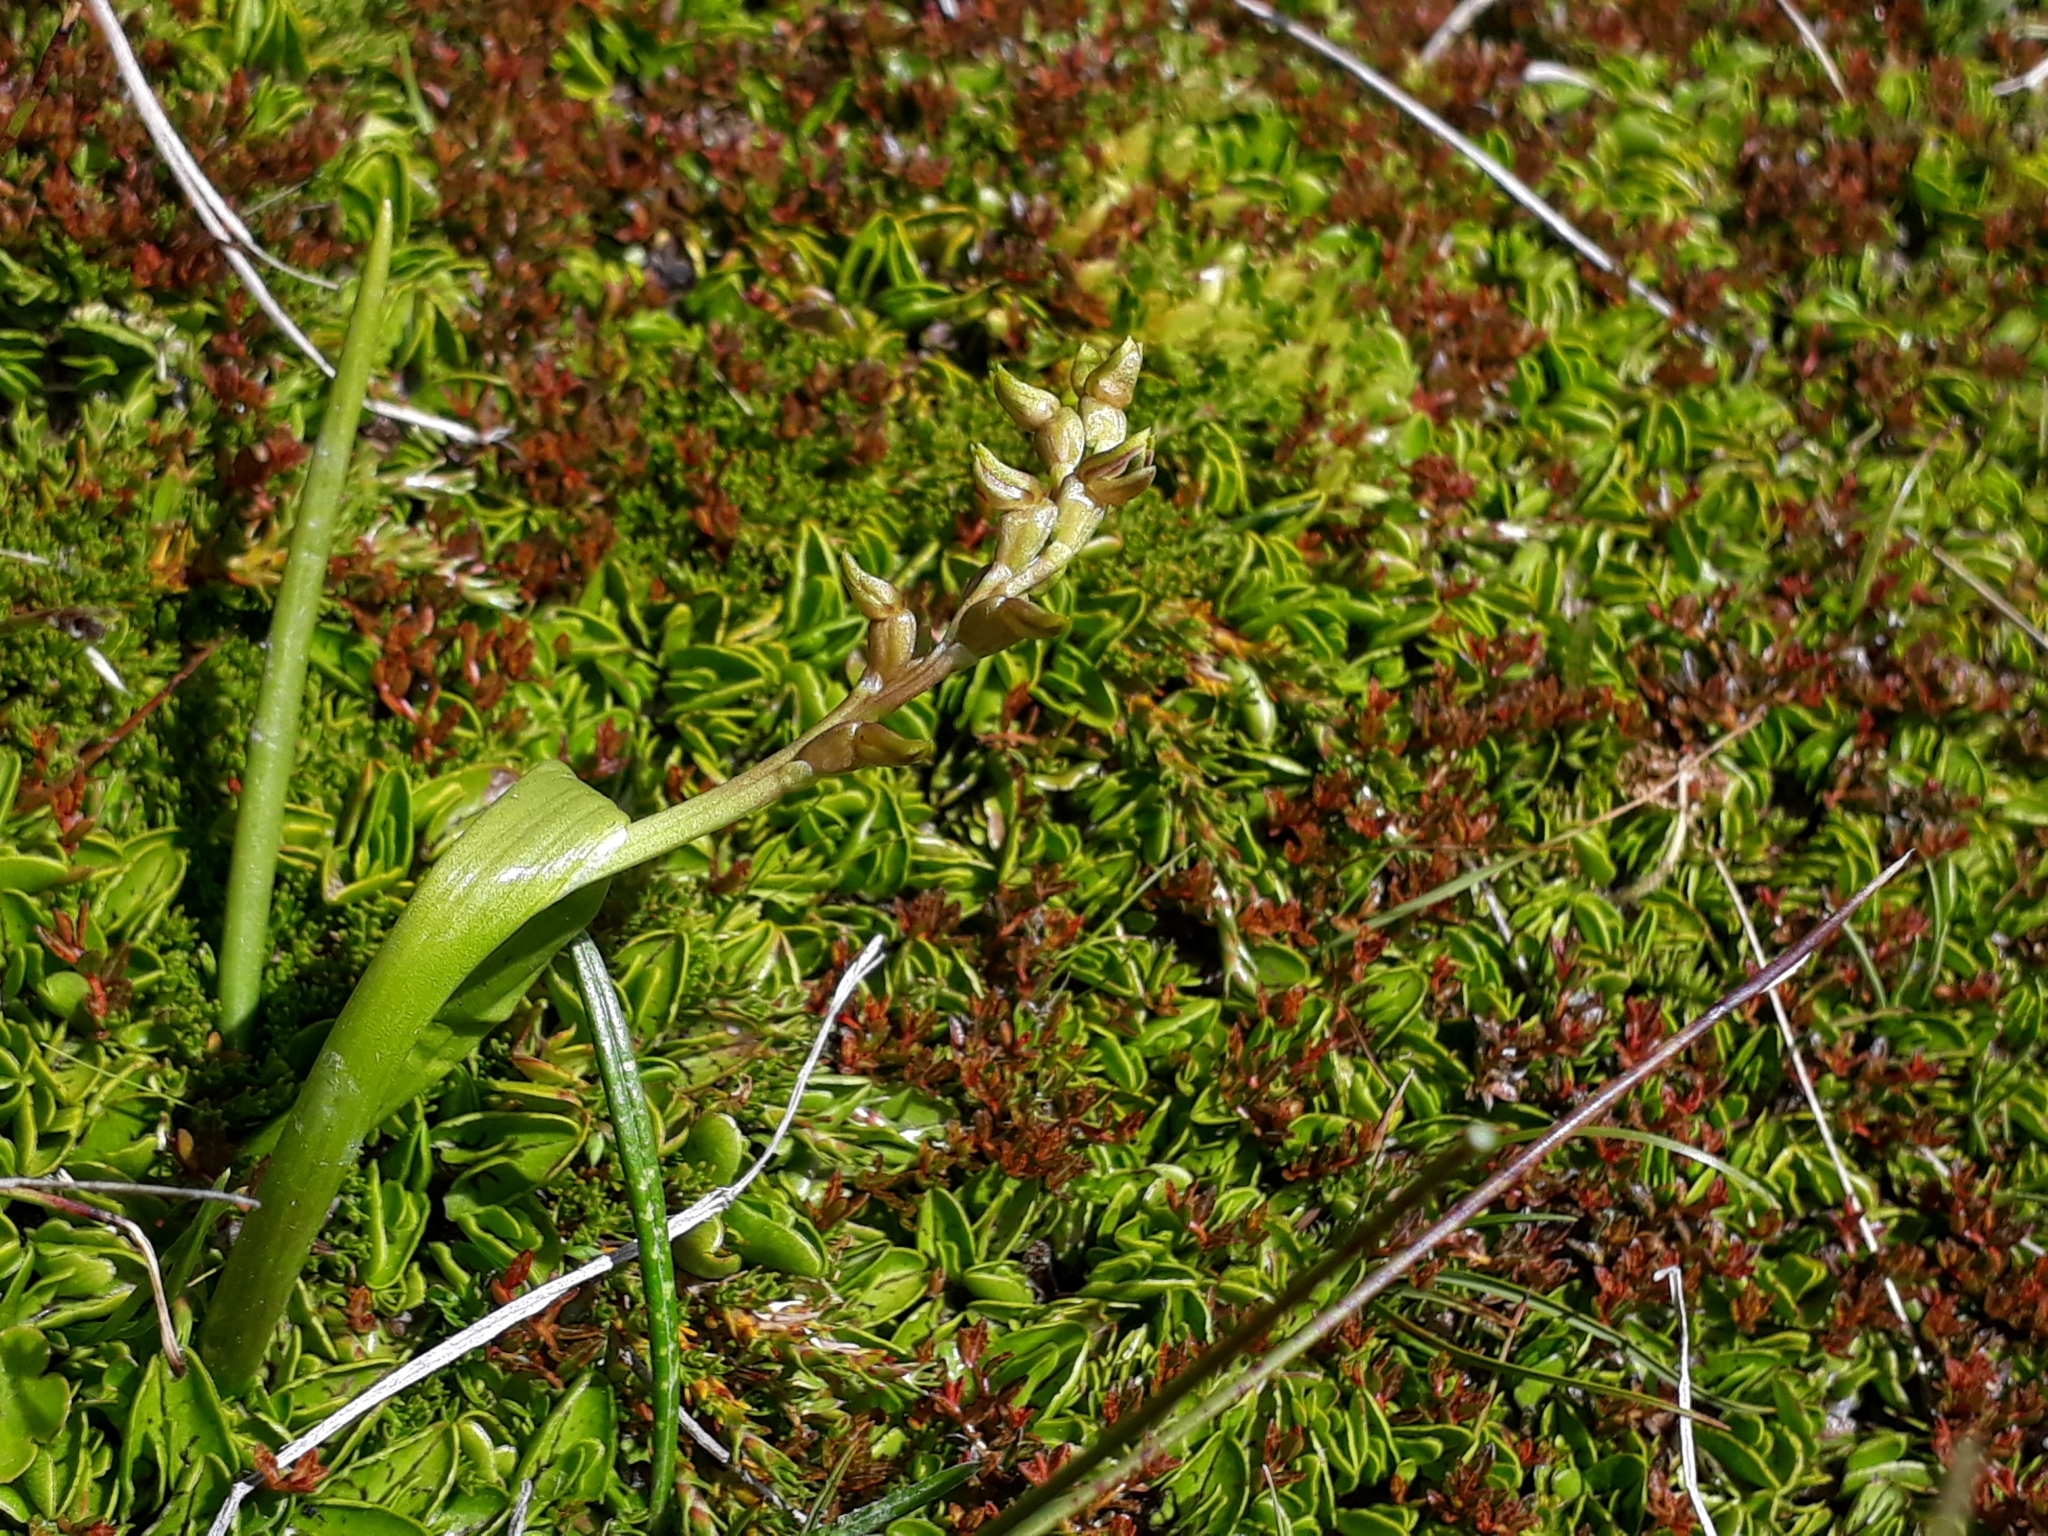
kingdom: Plantae
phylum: Tracheophyta
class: Liliopsida
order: Asparagales
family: Orchidaceae
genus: Prasophyllum
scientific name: Prasophyllum colensoi
